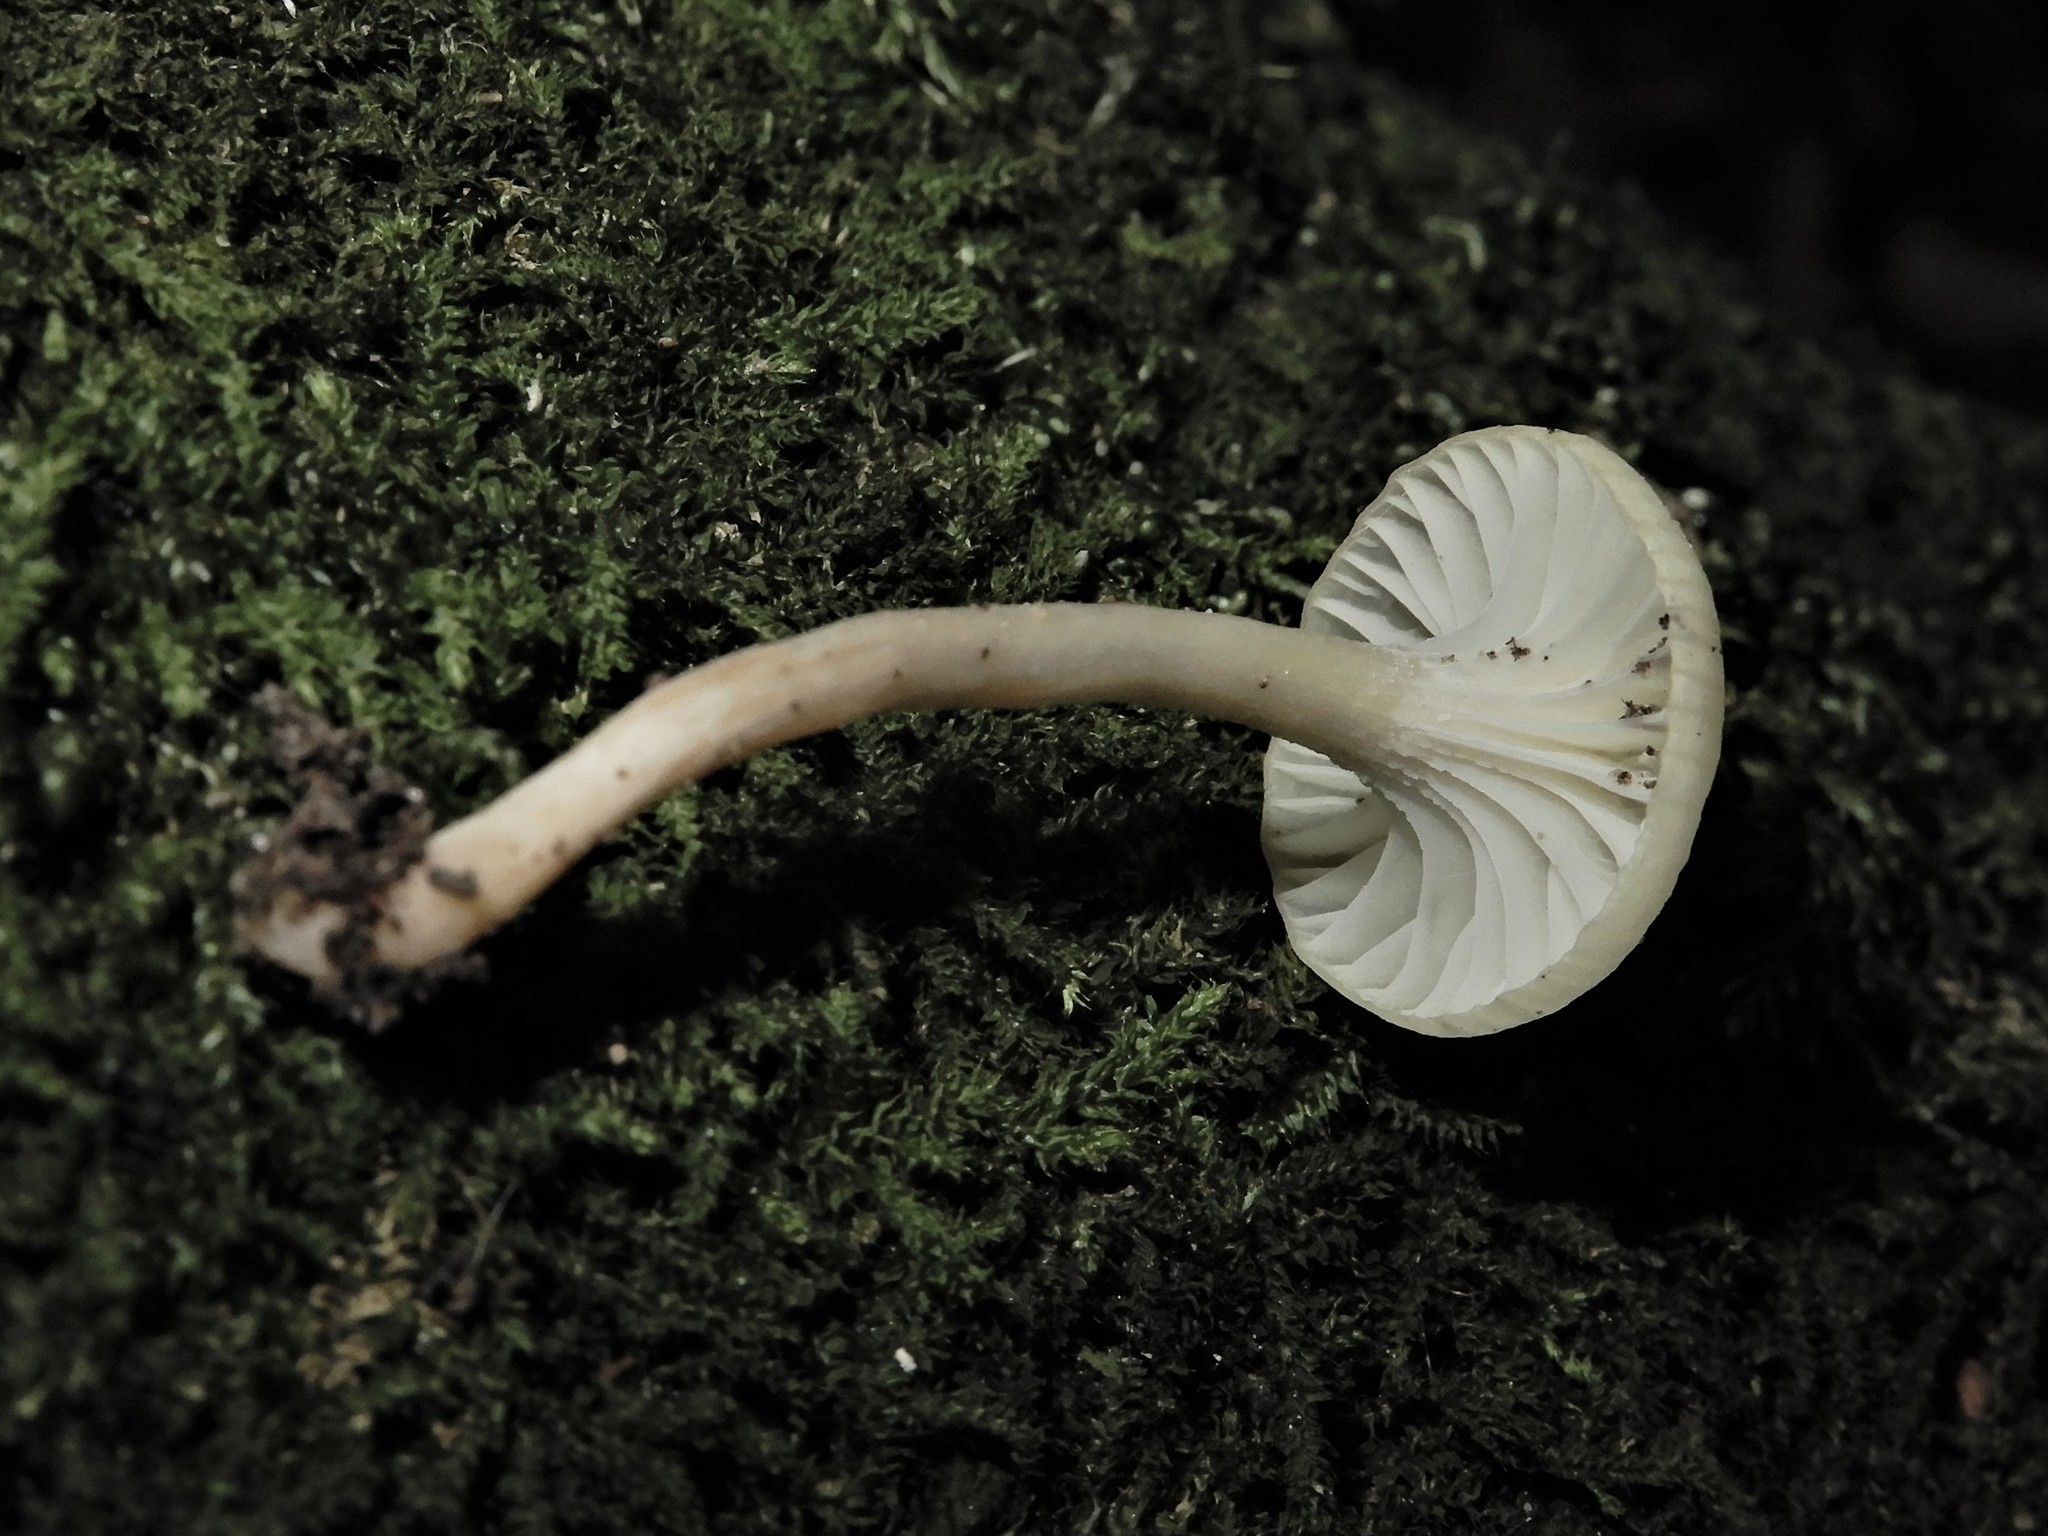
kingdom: Fungi
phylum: Basidiomycota
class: Agaricomycetes
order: Agaricales
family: Hygrophoraceae
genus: Cuphophyllus
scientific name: Cuphophyllus
